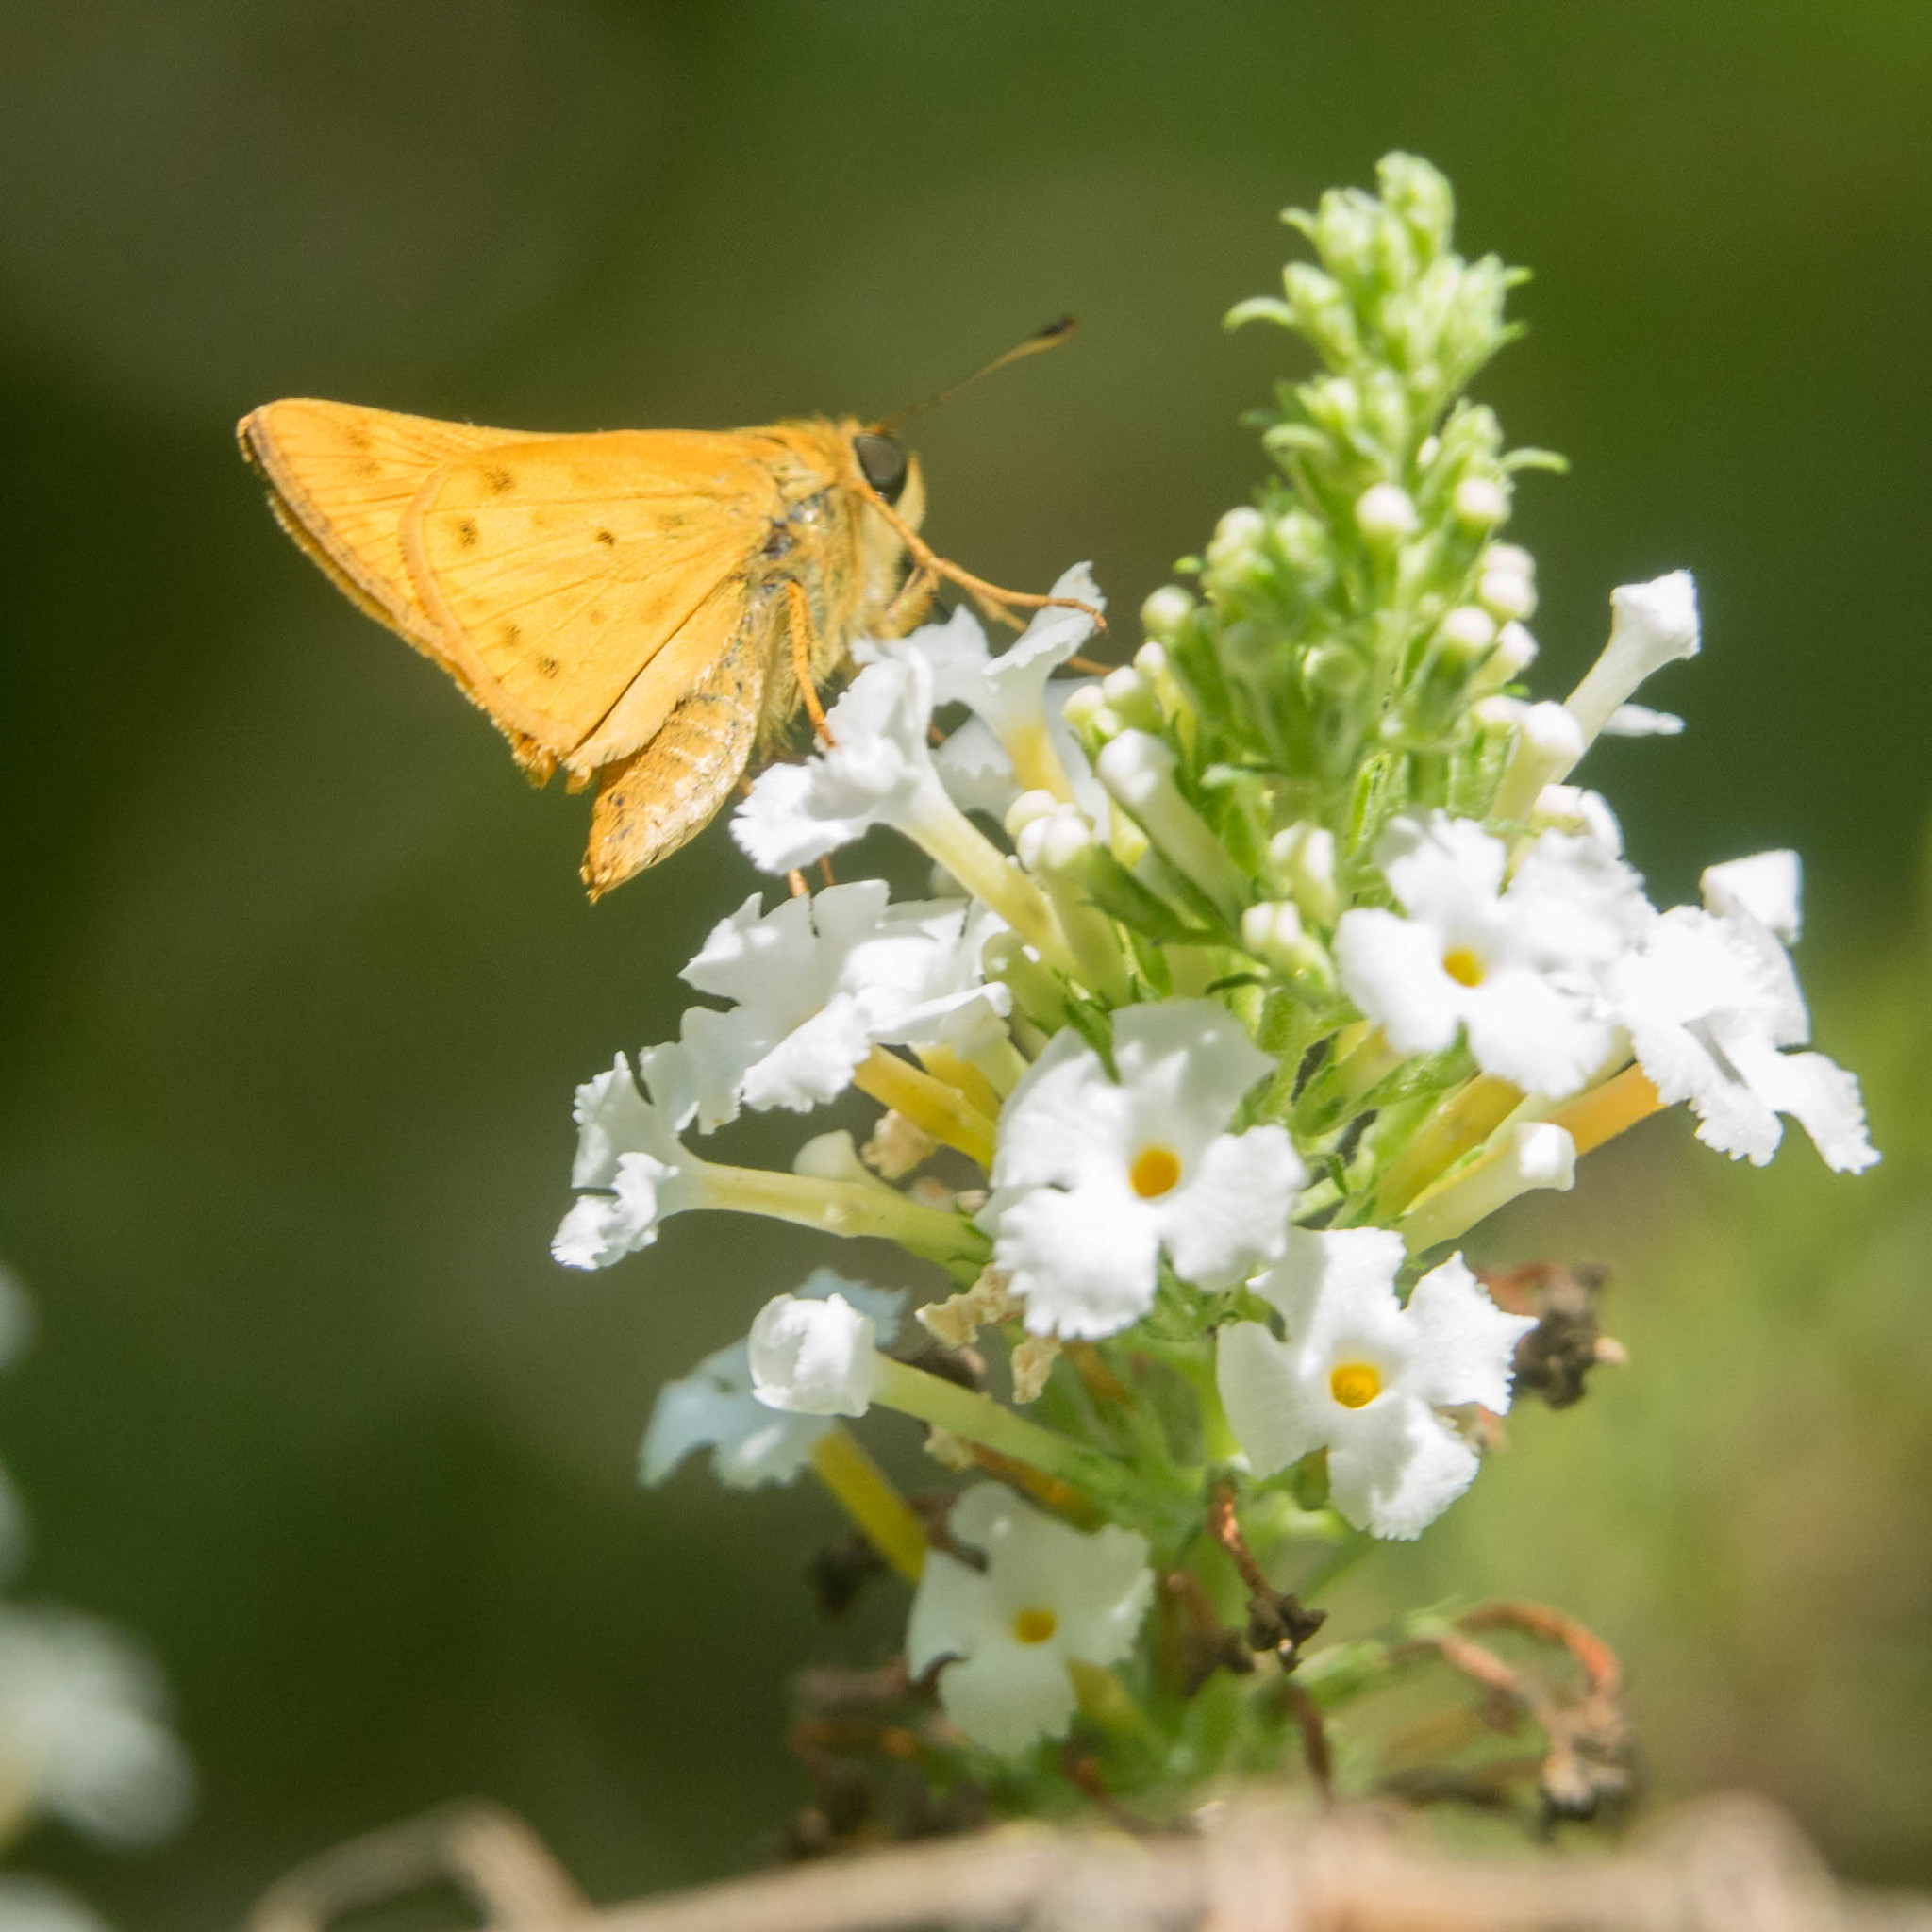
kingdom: Animalia
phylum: Arthropoda
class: Insecta
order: Lepidoptera
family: Hesperiidae
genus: Hylephila
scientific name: Hylephila phyleus
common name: Fiery skipper
